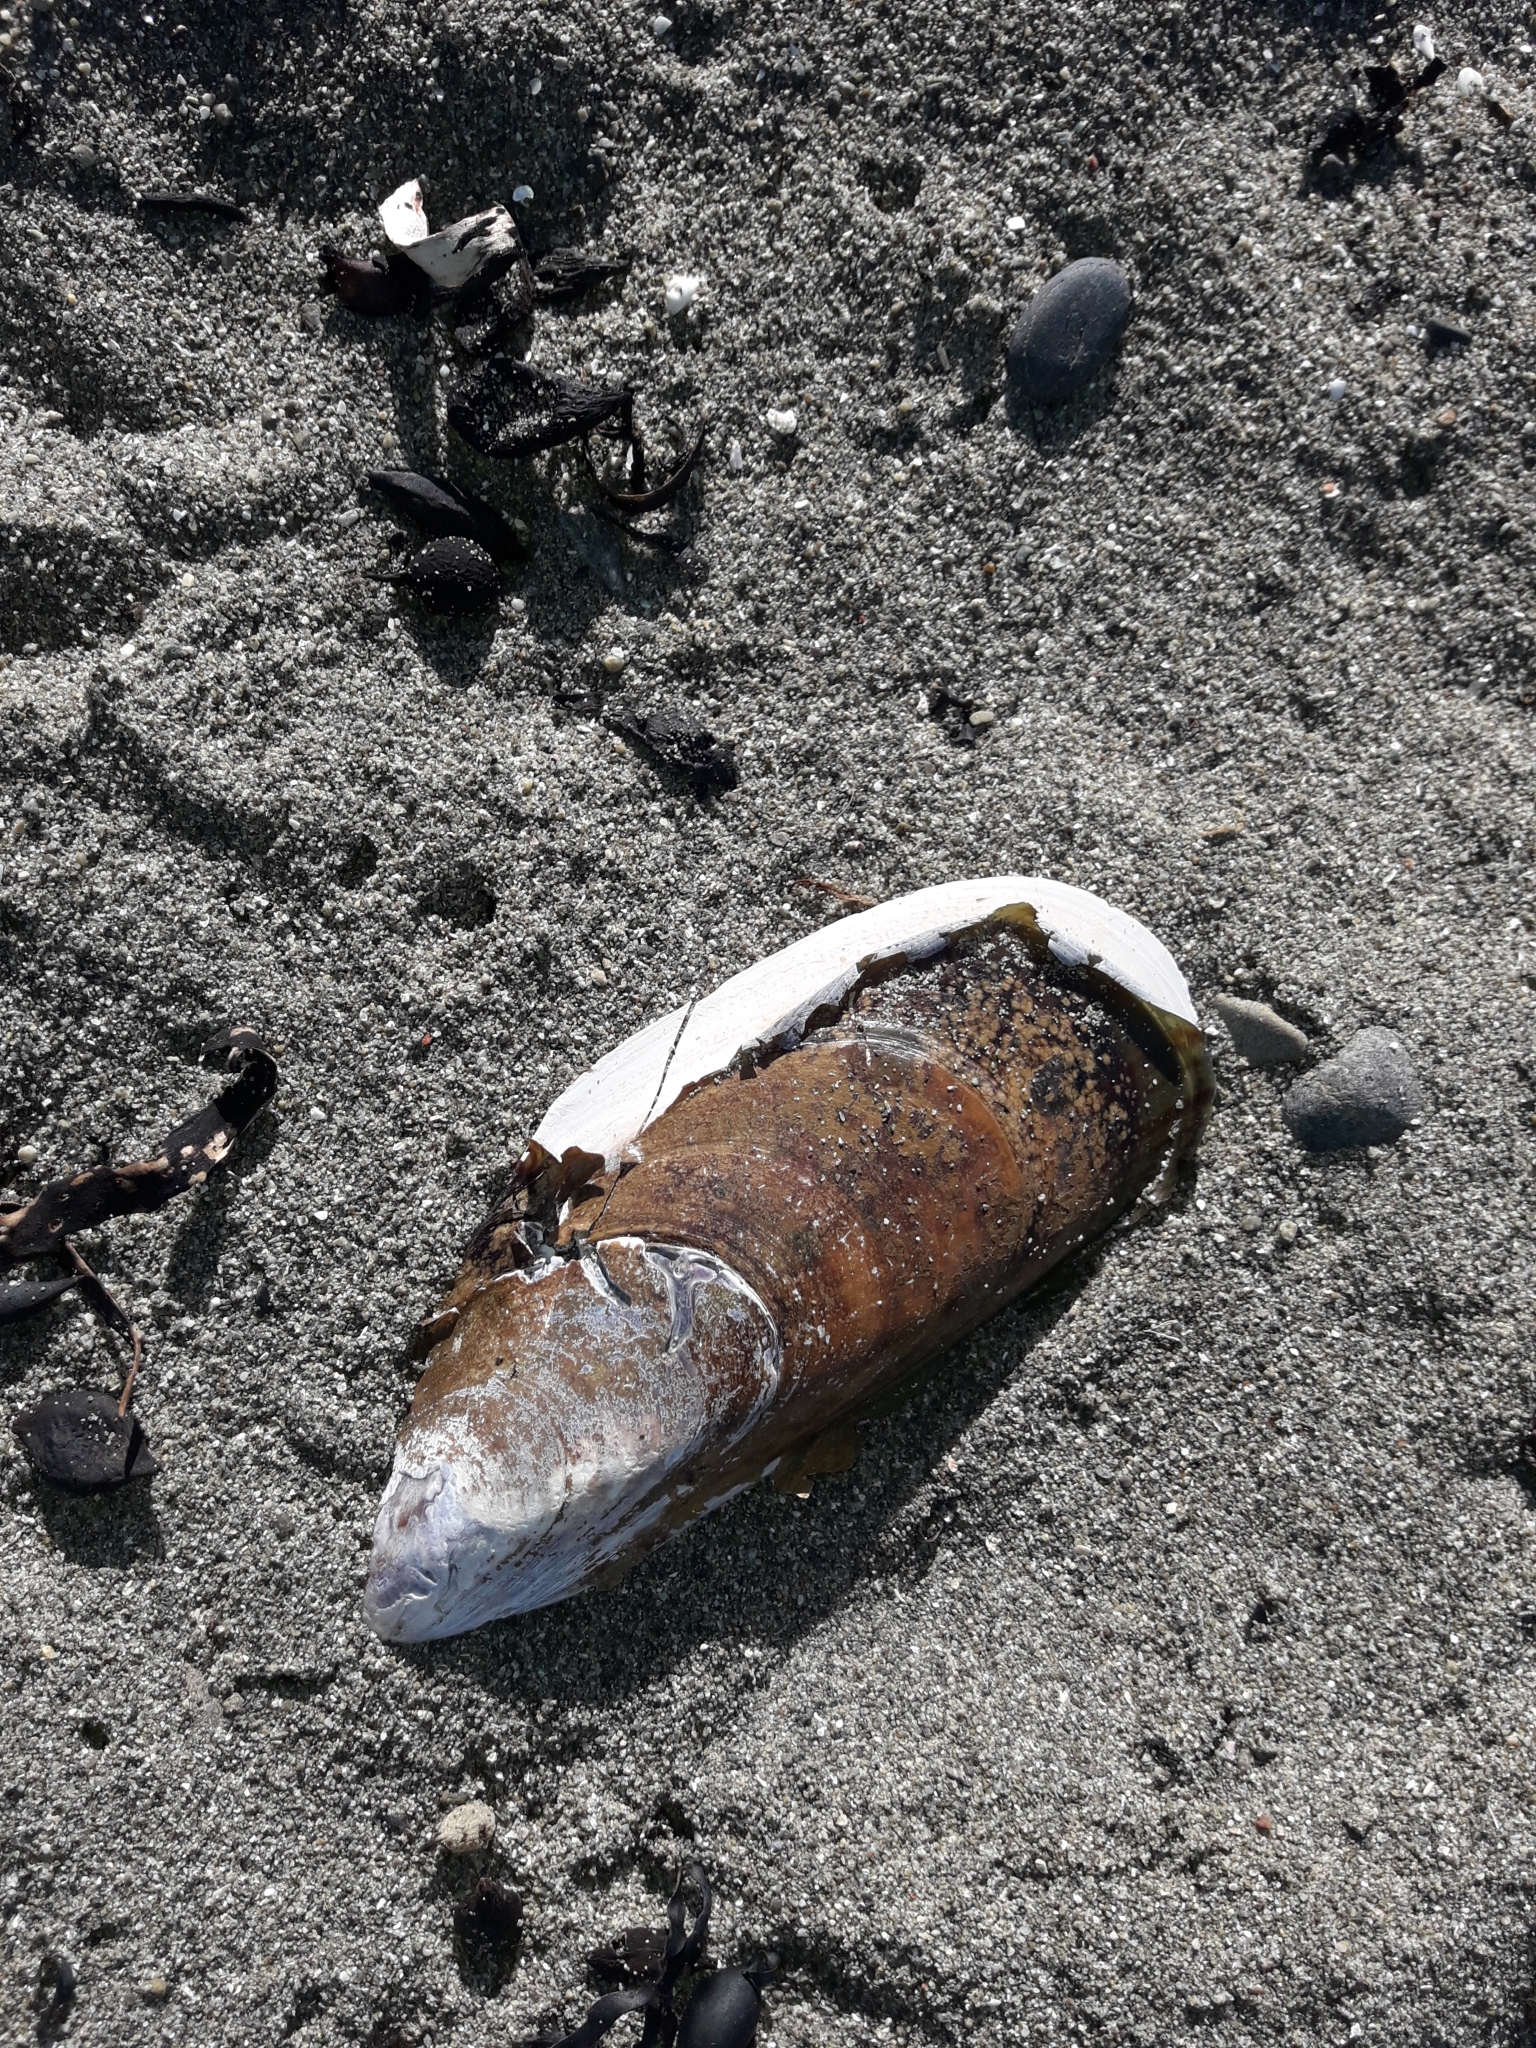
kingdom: Animalia
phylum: Mollusca
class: Bivalvia
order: Mytilida
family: Mytilidae
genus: Perna
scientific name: Perna canaliculus
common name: New zealand greenshelltm
